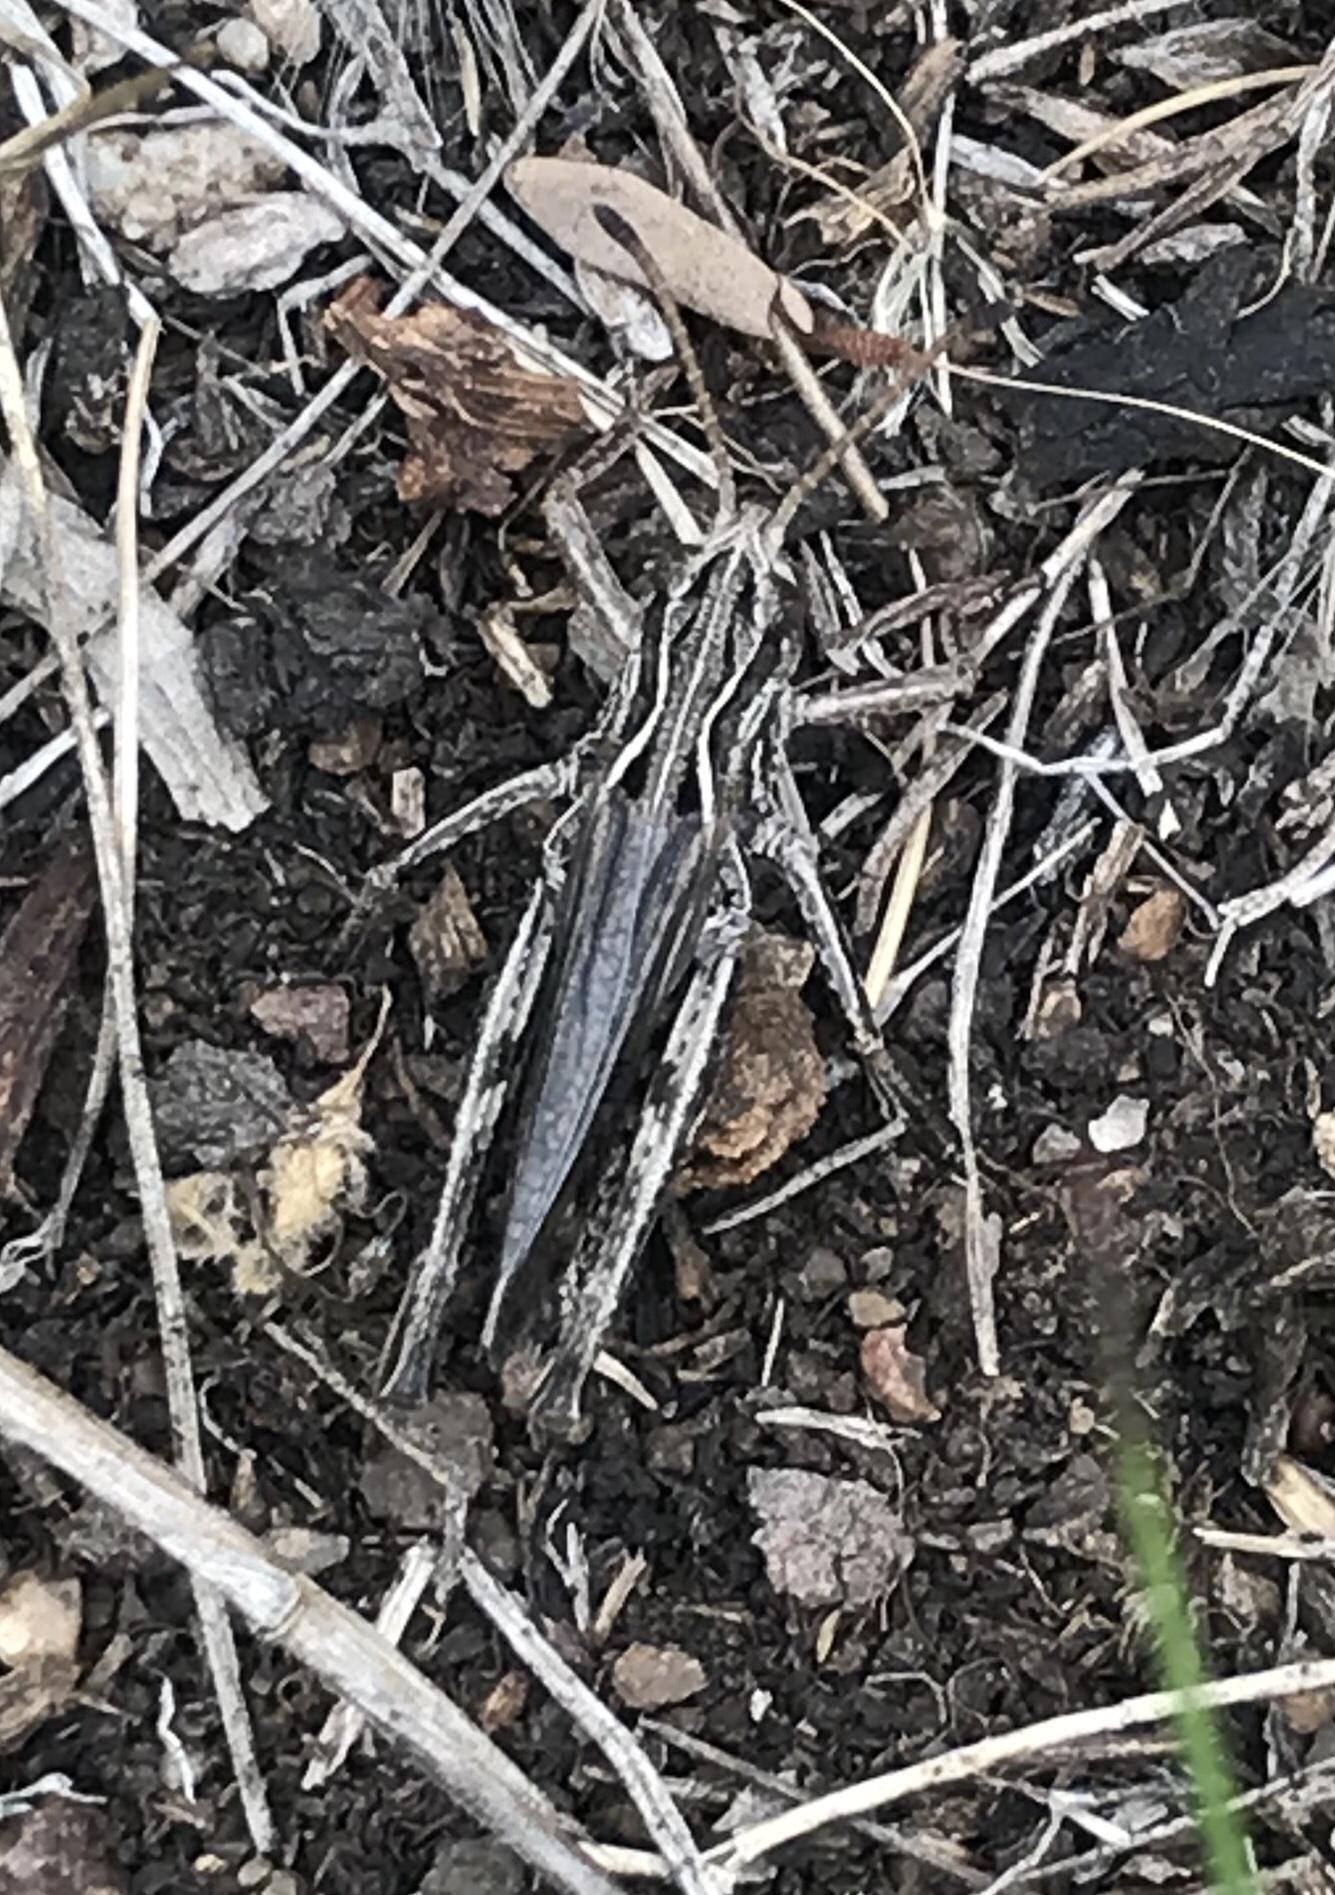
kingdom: Animalia
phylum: Arthropoda
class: Insecta
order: Orthoptera
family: Acrididae
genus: Aeropedellus
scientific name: Aeropedellus clavatus
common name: Clubhorned grasshopper
